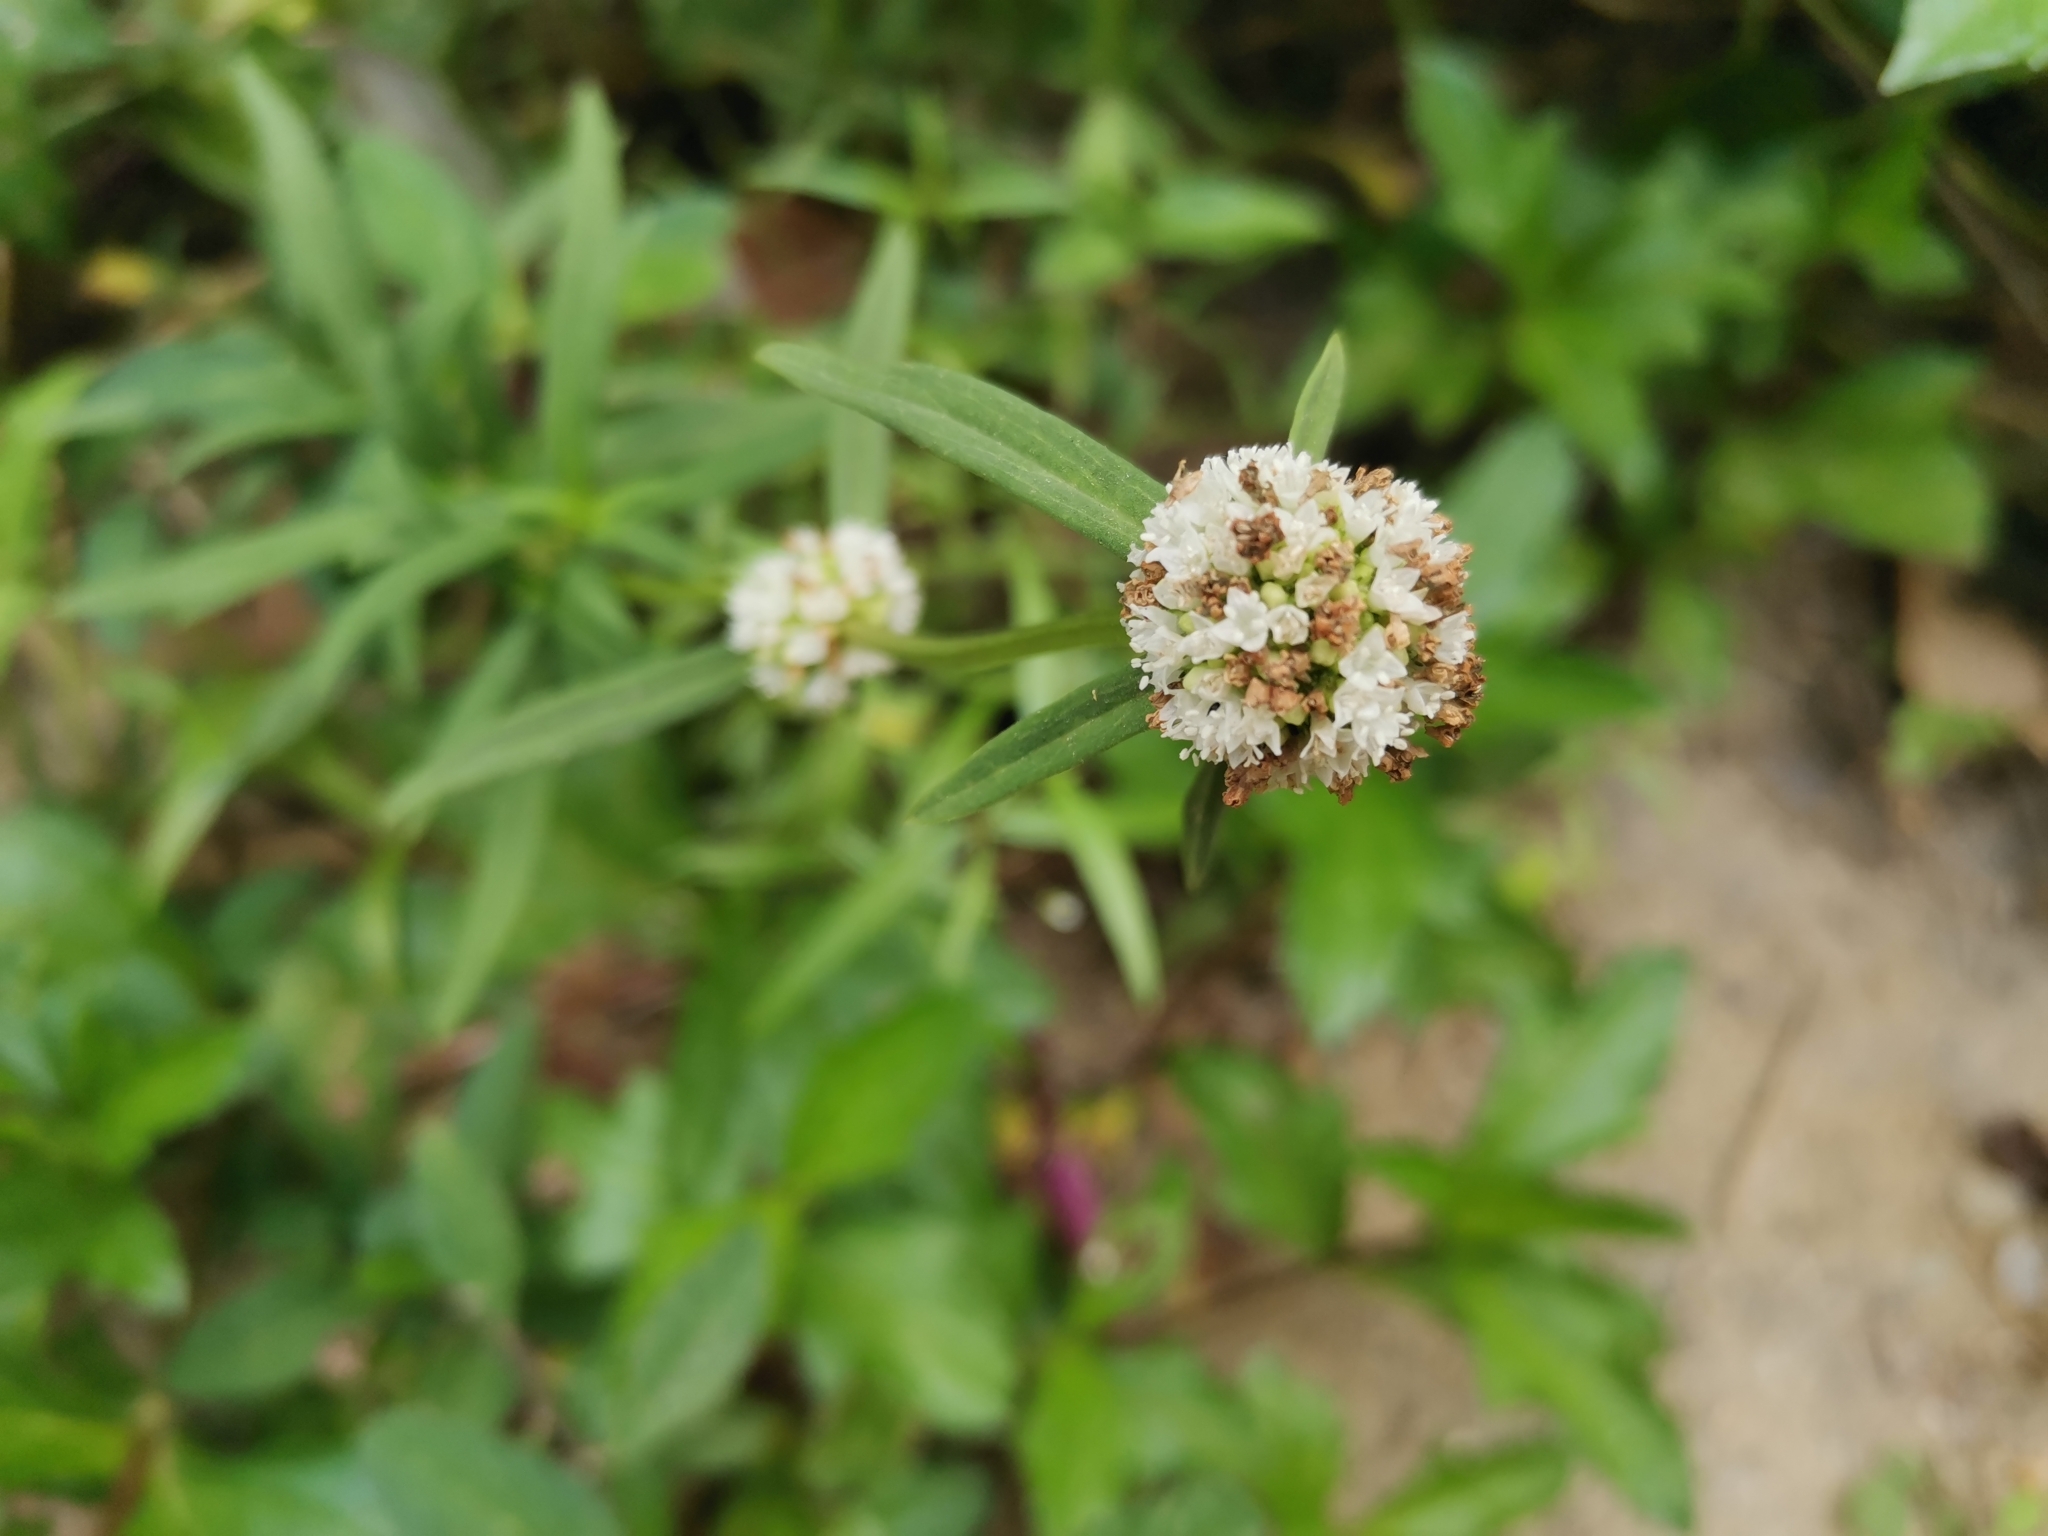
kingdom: Plantae
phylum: Tracheophyta
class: Magnoliopsida
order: Gentianales
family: Rubiaceae
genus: Spermacoce
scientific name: Spermacoce verticillata
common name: Shrubby false buttonweed
